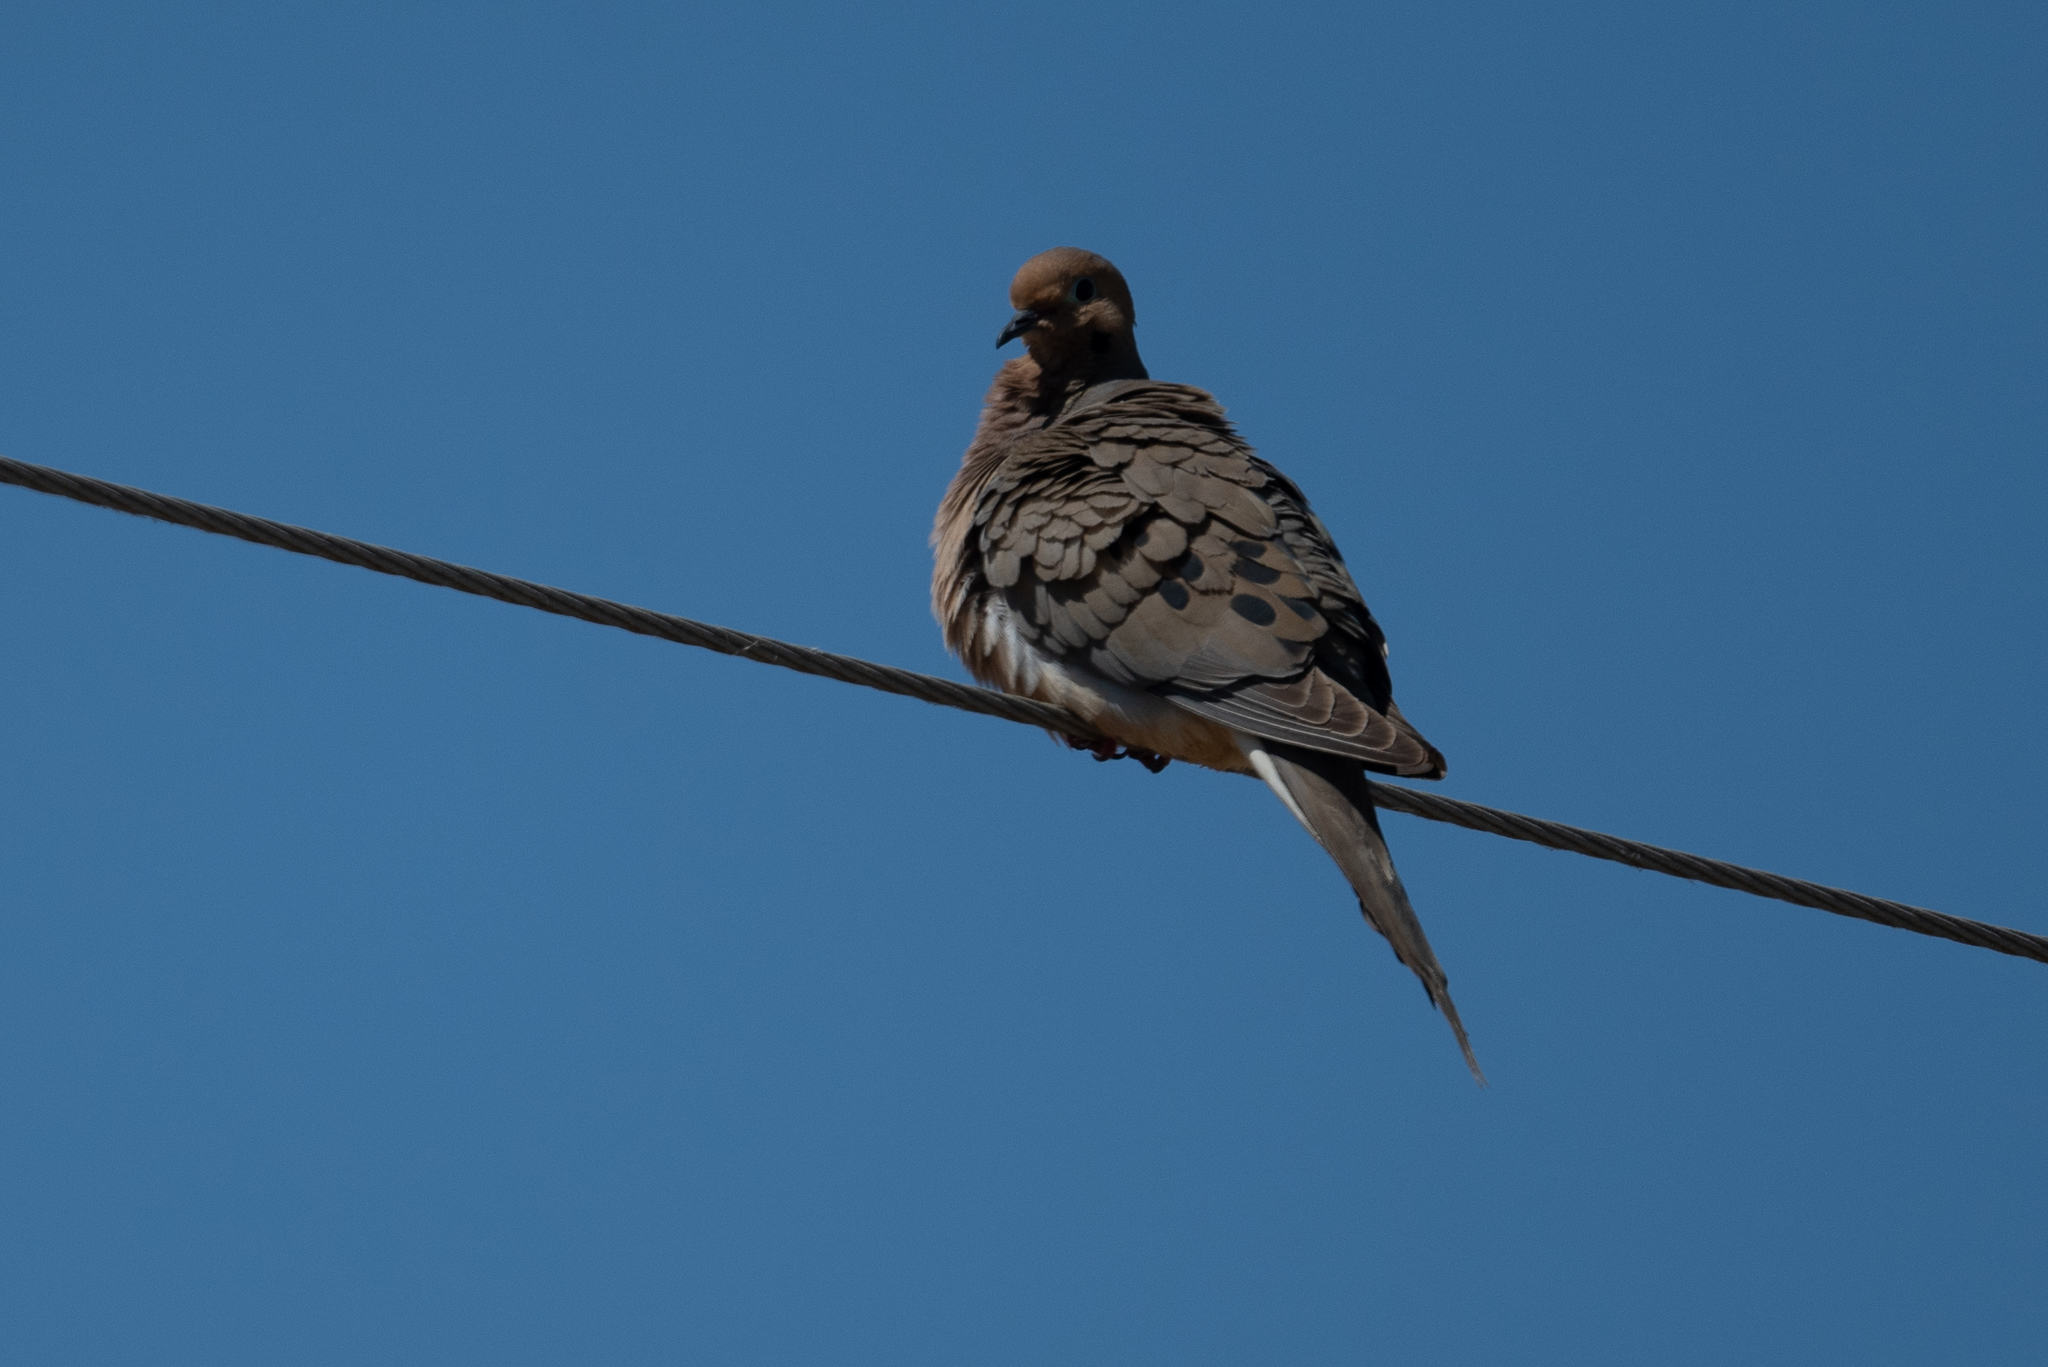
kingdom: Animalia
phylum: Chordata
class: Aves
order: Columbiformes
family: Columbidae
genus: Zenaida
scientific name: Zenaida macroura
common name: Mourning dove
